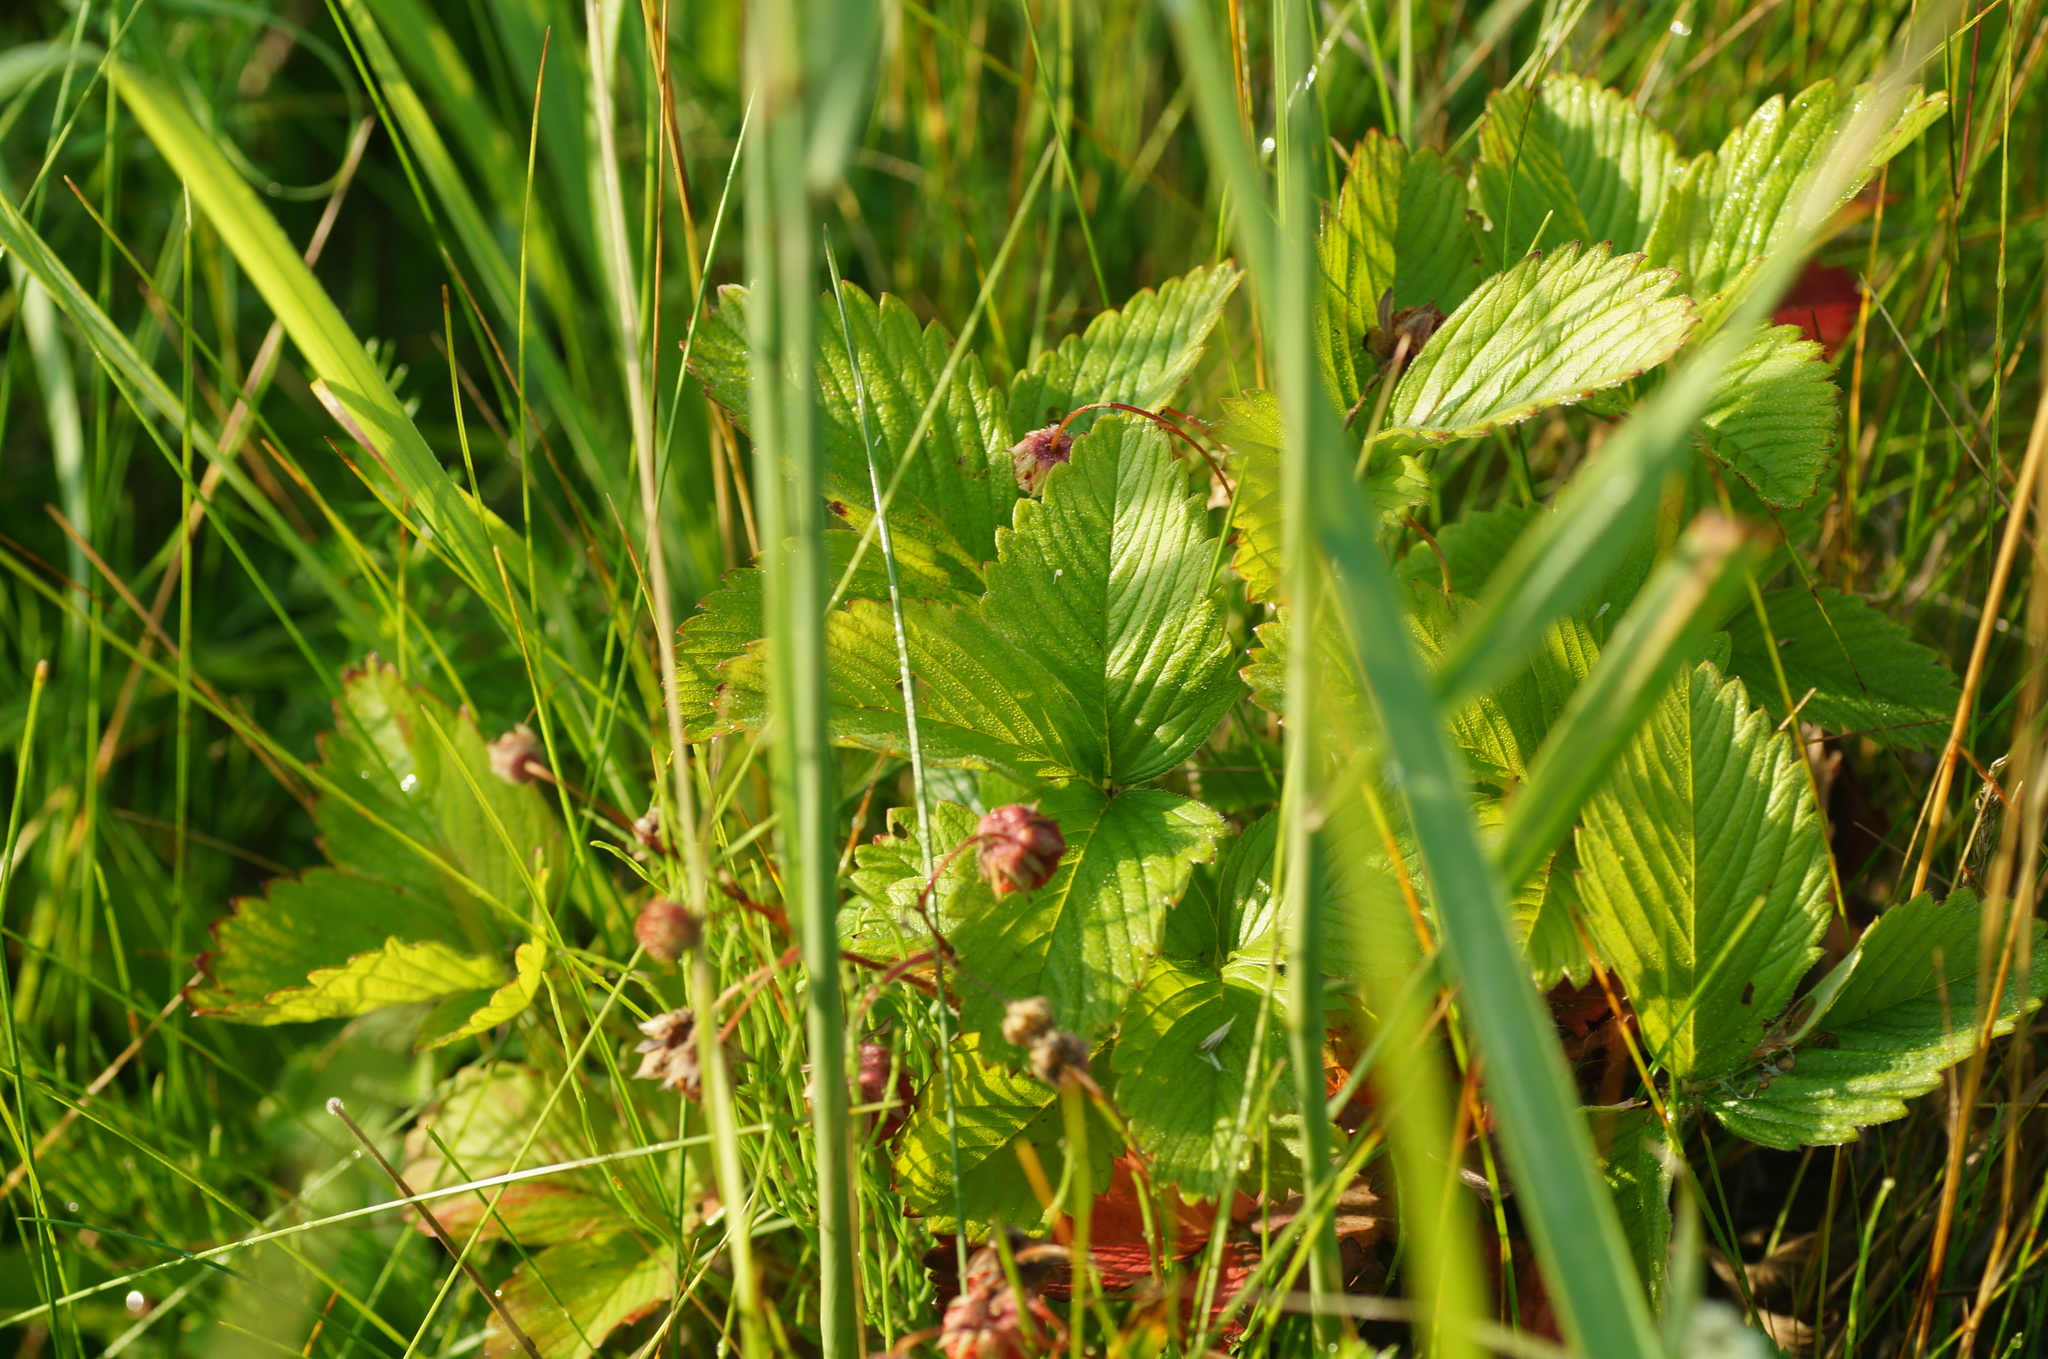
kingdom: Plantae
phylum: Tracheophyta
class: Magnoliopsida
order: Rosales
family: Rosaceae
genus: Fragaria
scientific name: Fragaria viridis
